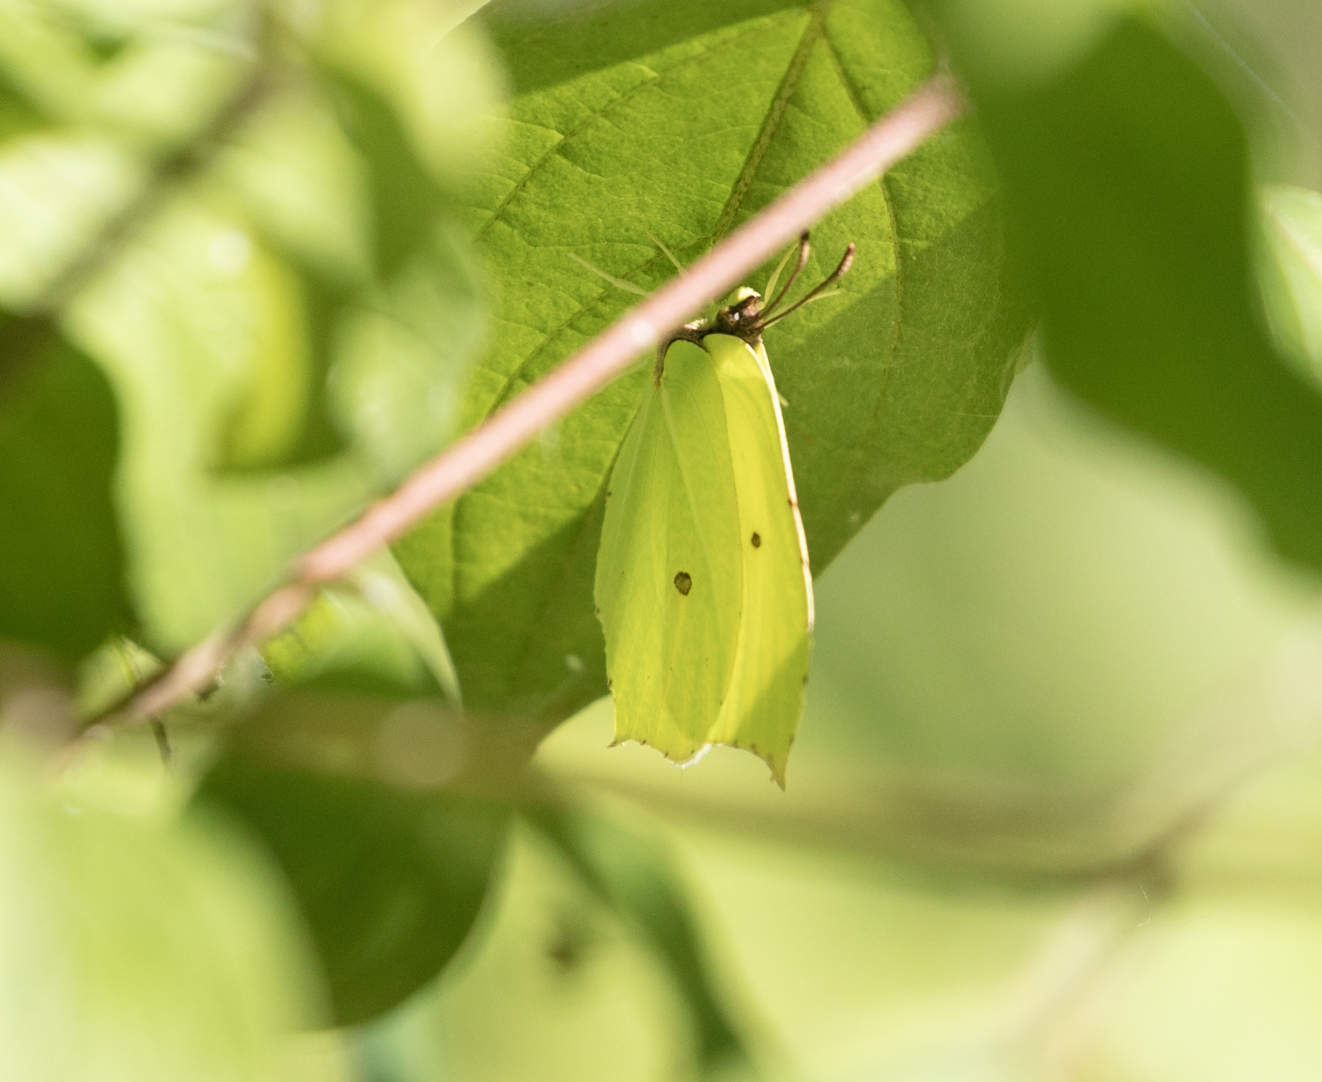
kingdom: Animalia
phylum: Arthropoda
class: Insecta
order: Lepidoptera
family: Pieridae
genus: Gonepteryx
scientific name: Gonepteryx rhamni
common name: Brimstone
